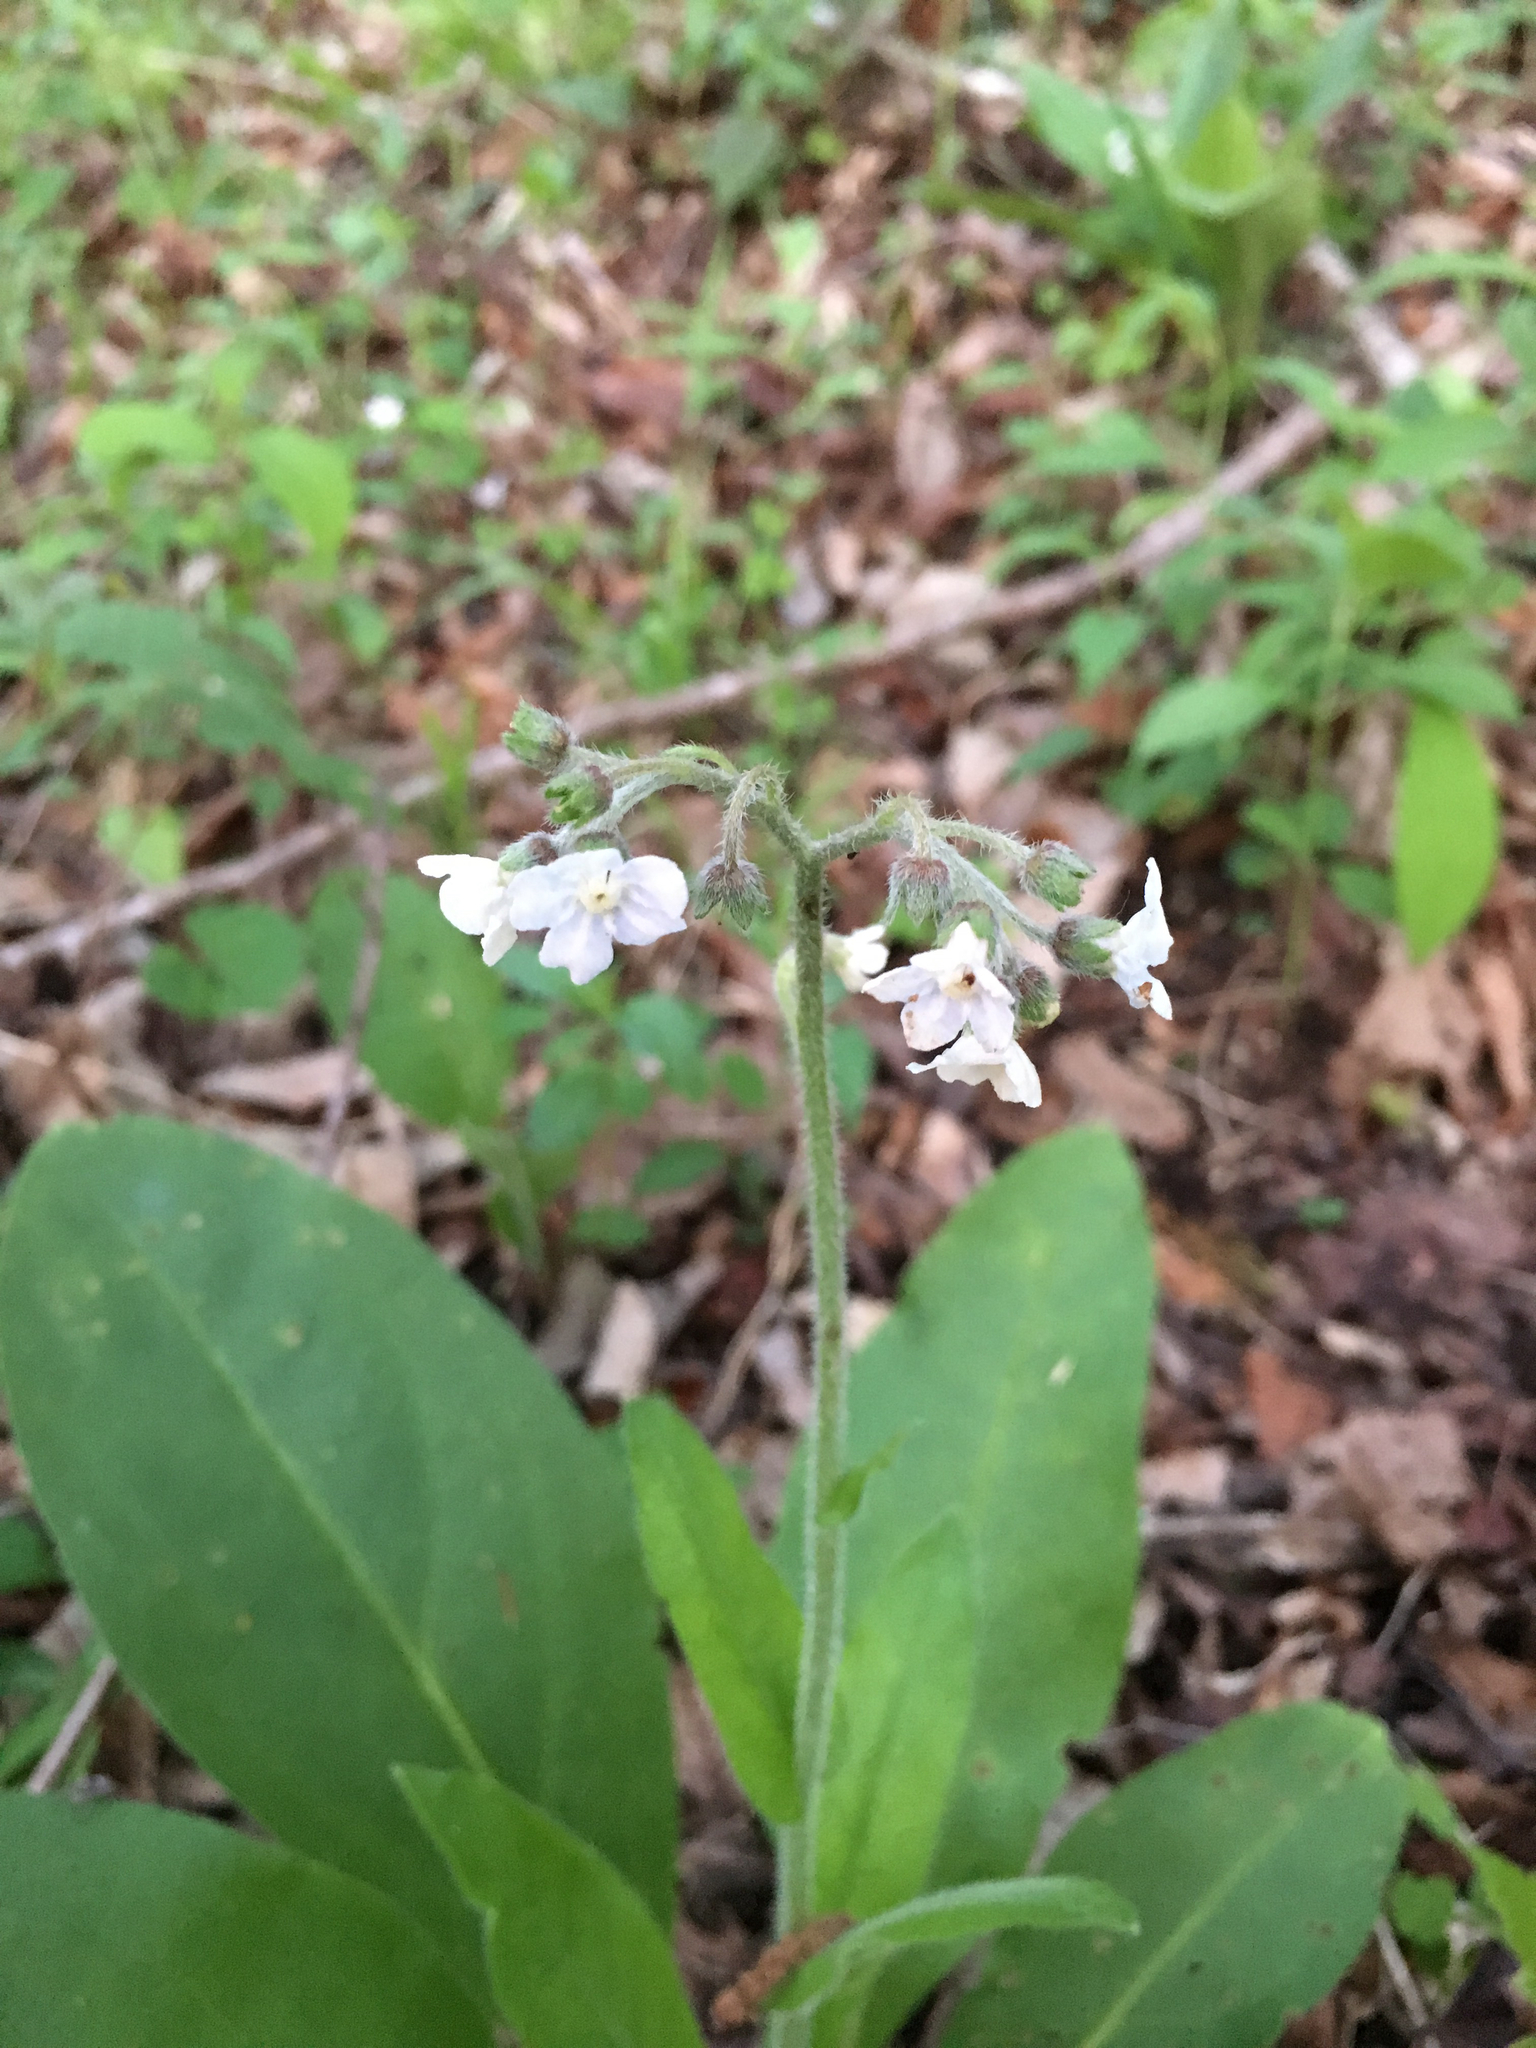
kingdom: Plantae
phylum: Tracheophyta
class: Magnoliopsida
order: Boraginales
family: Boraginaceae
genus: Andersonglossum
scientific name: Andersonglossum virginianum
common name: Wild comfrey
